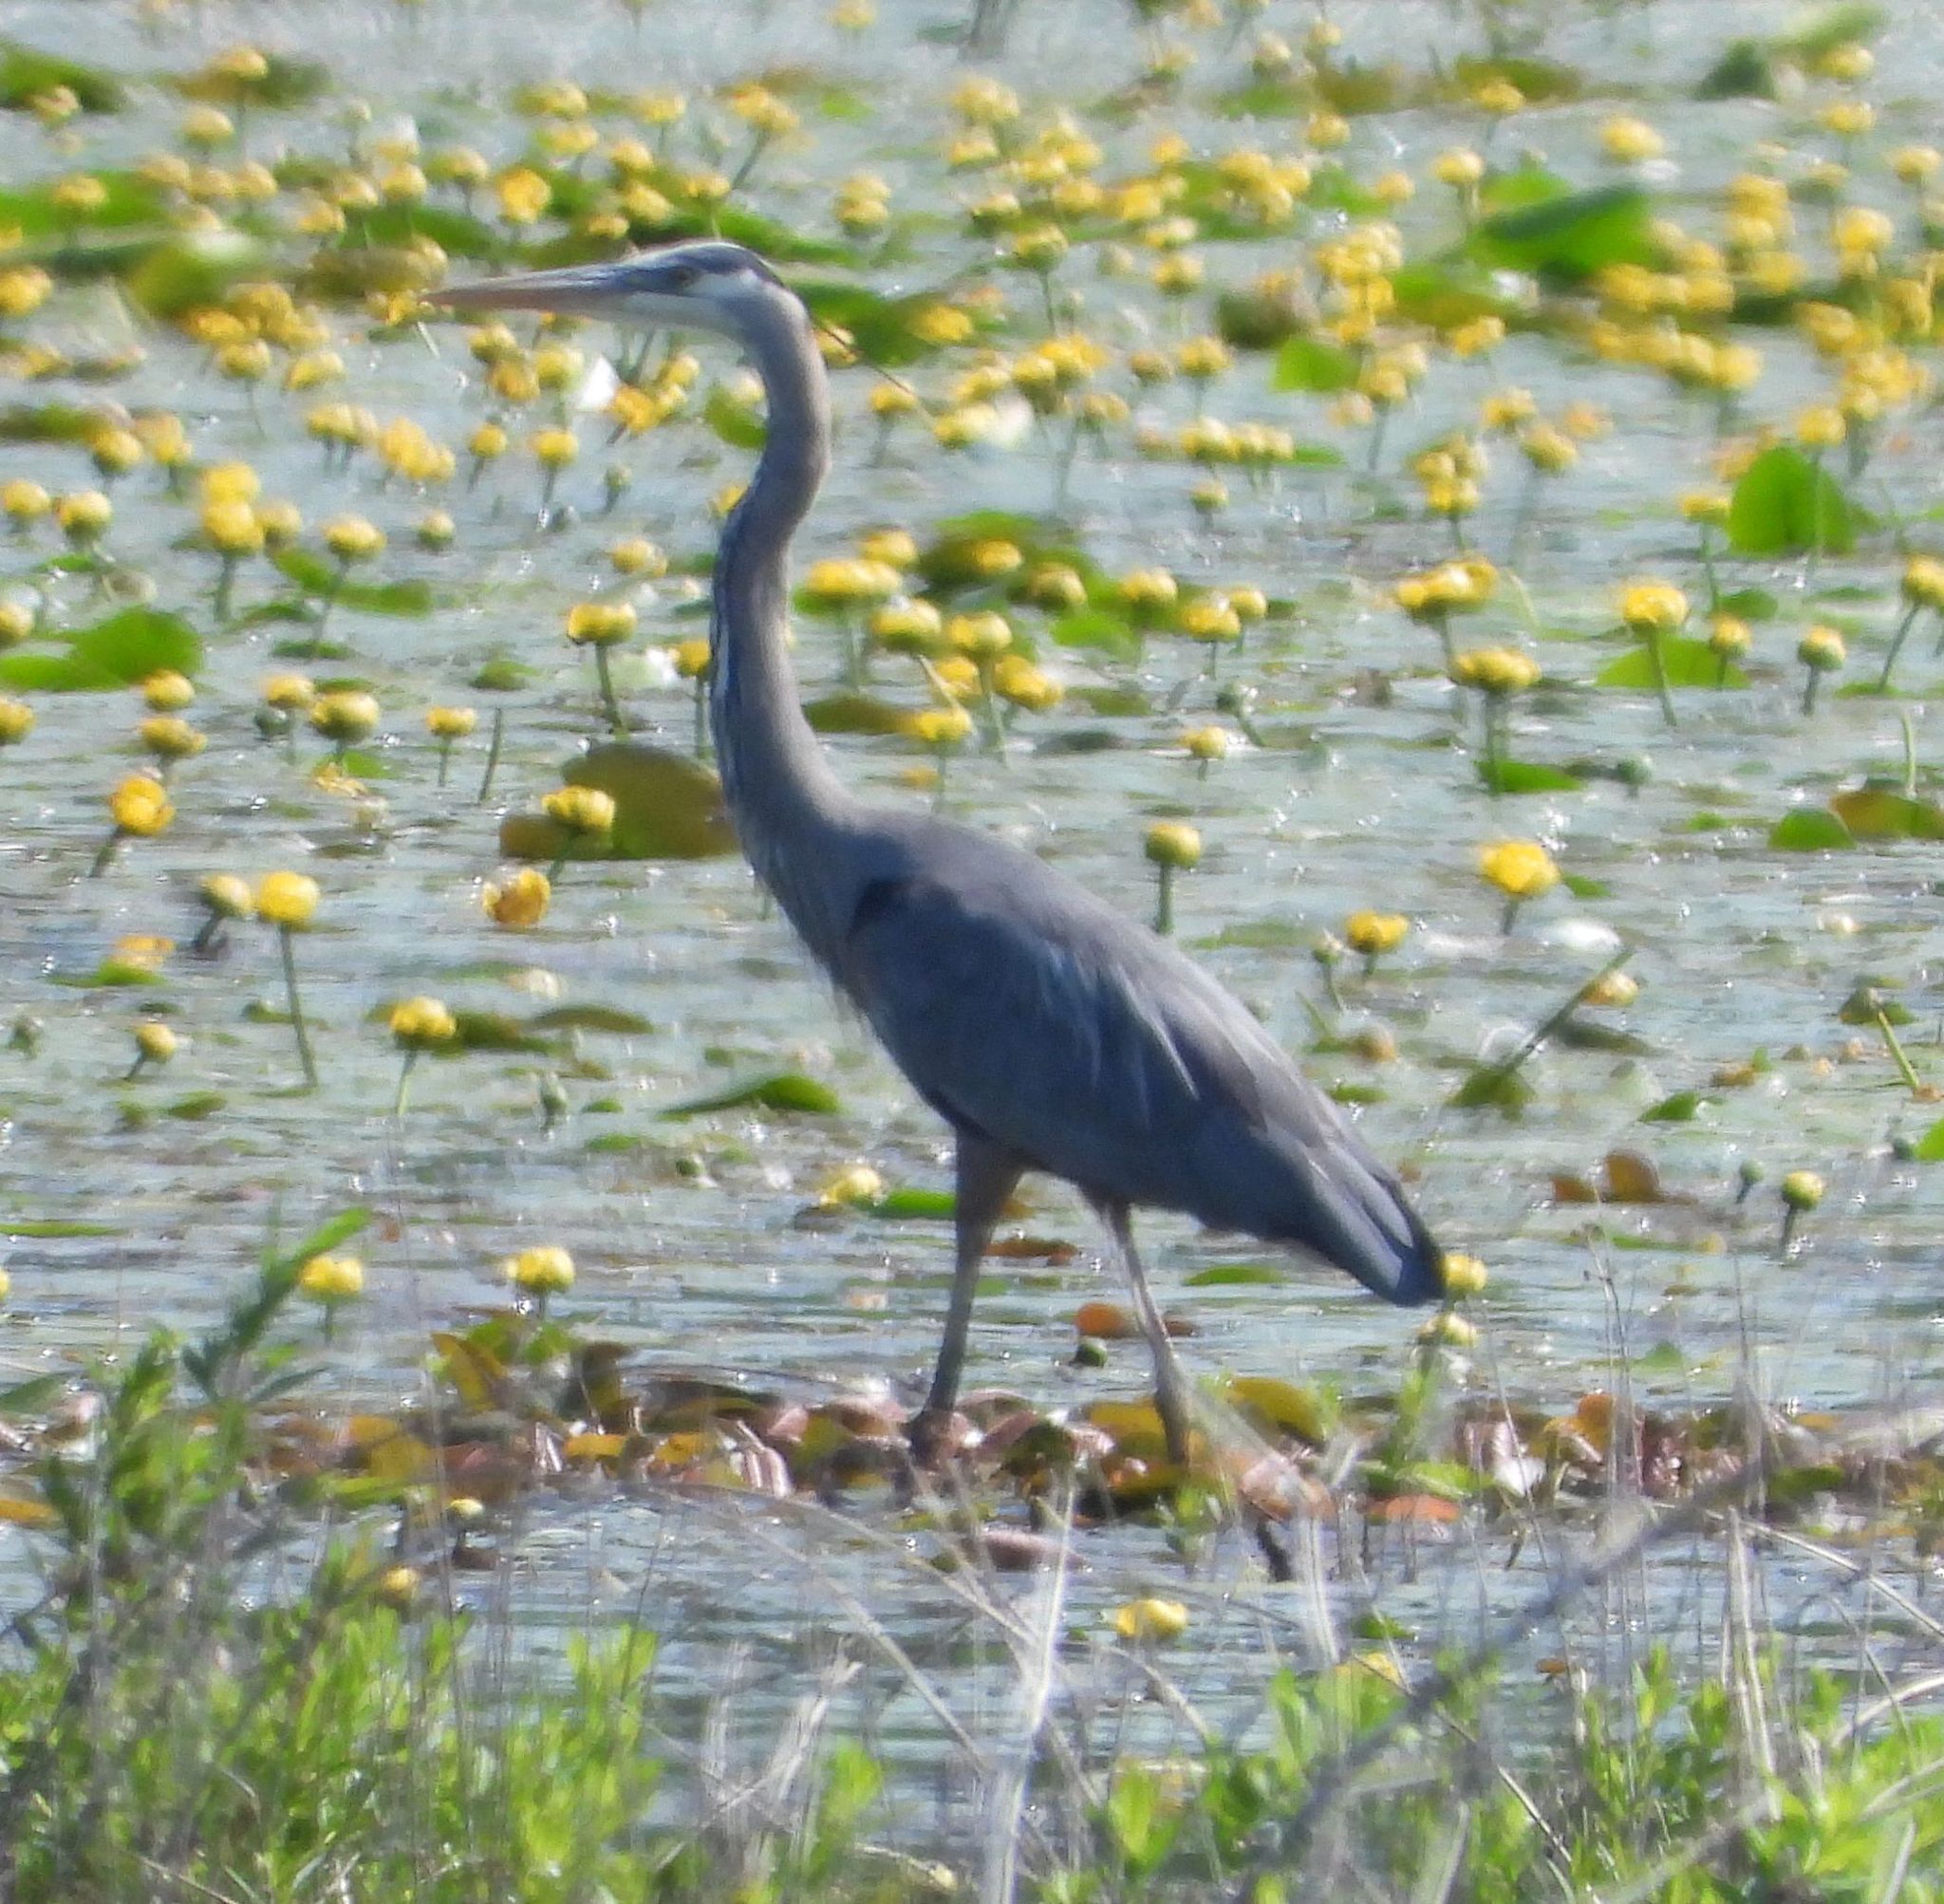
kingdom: Animalia
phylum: Chordata
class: Aves
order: Pelecaniformes
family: Ardeidae
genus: Ardea
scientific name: Ardea herodias
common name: Great blue heron
